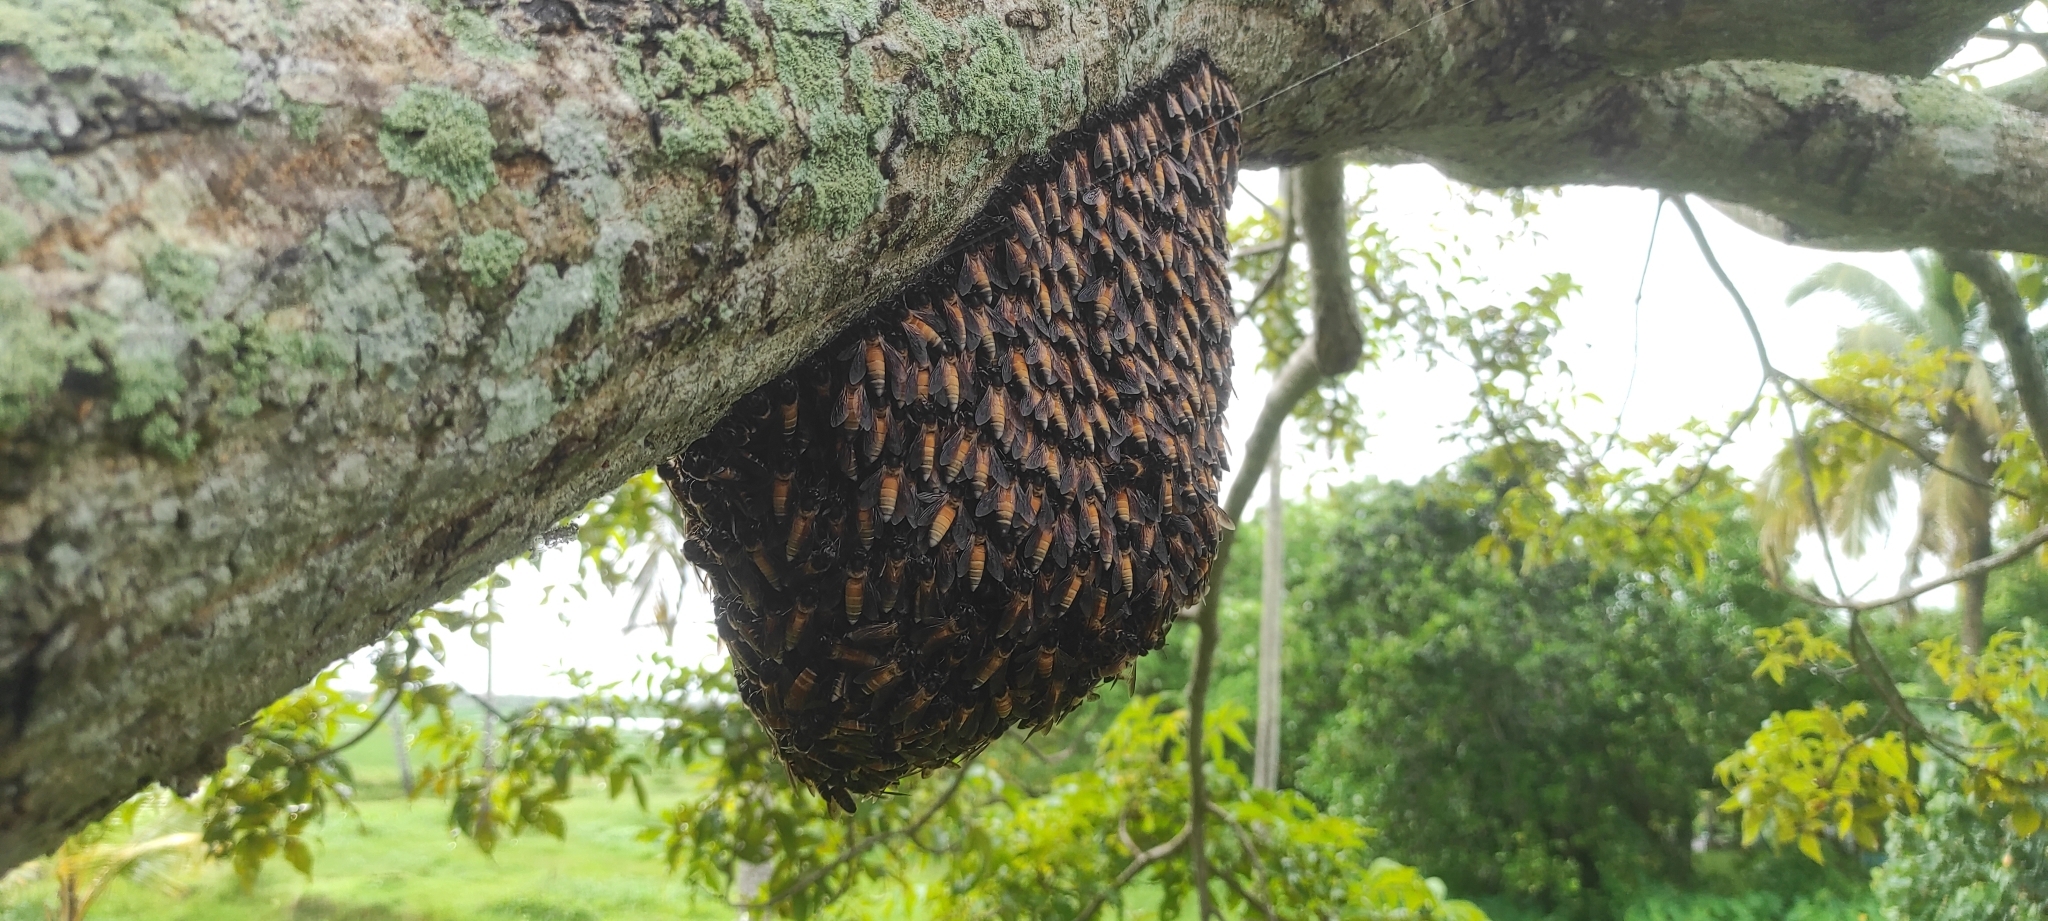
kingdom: Animalia
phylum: Arthropoda
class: Insecta
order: Hymenoptera
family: Apidae
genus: Apis
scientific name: Apis dorsata
